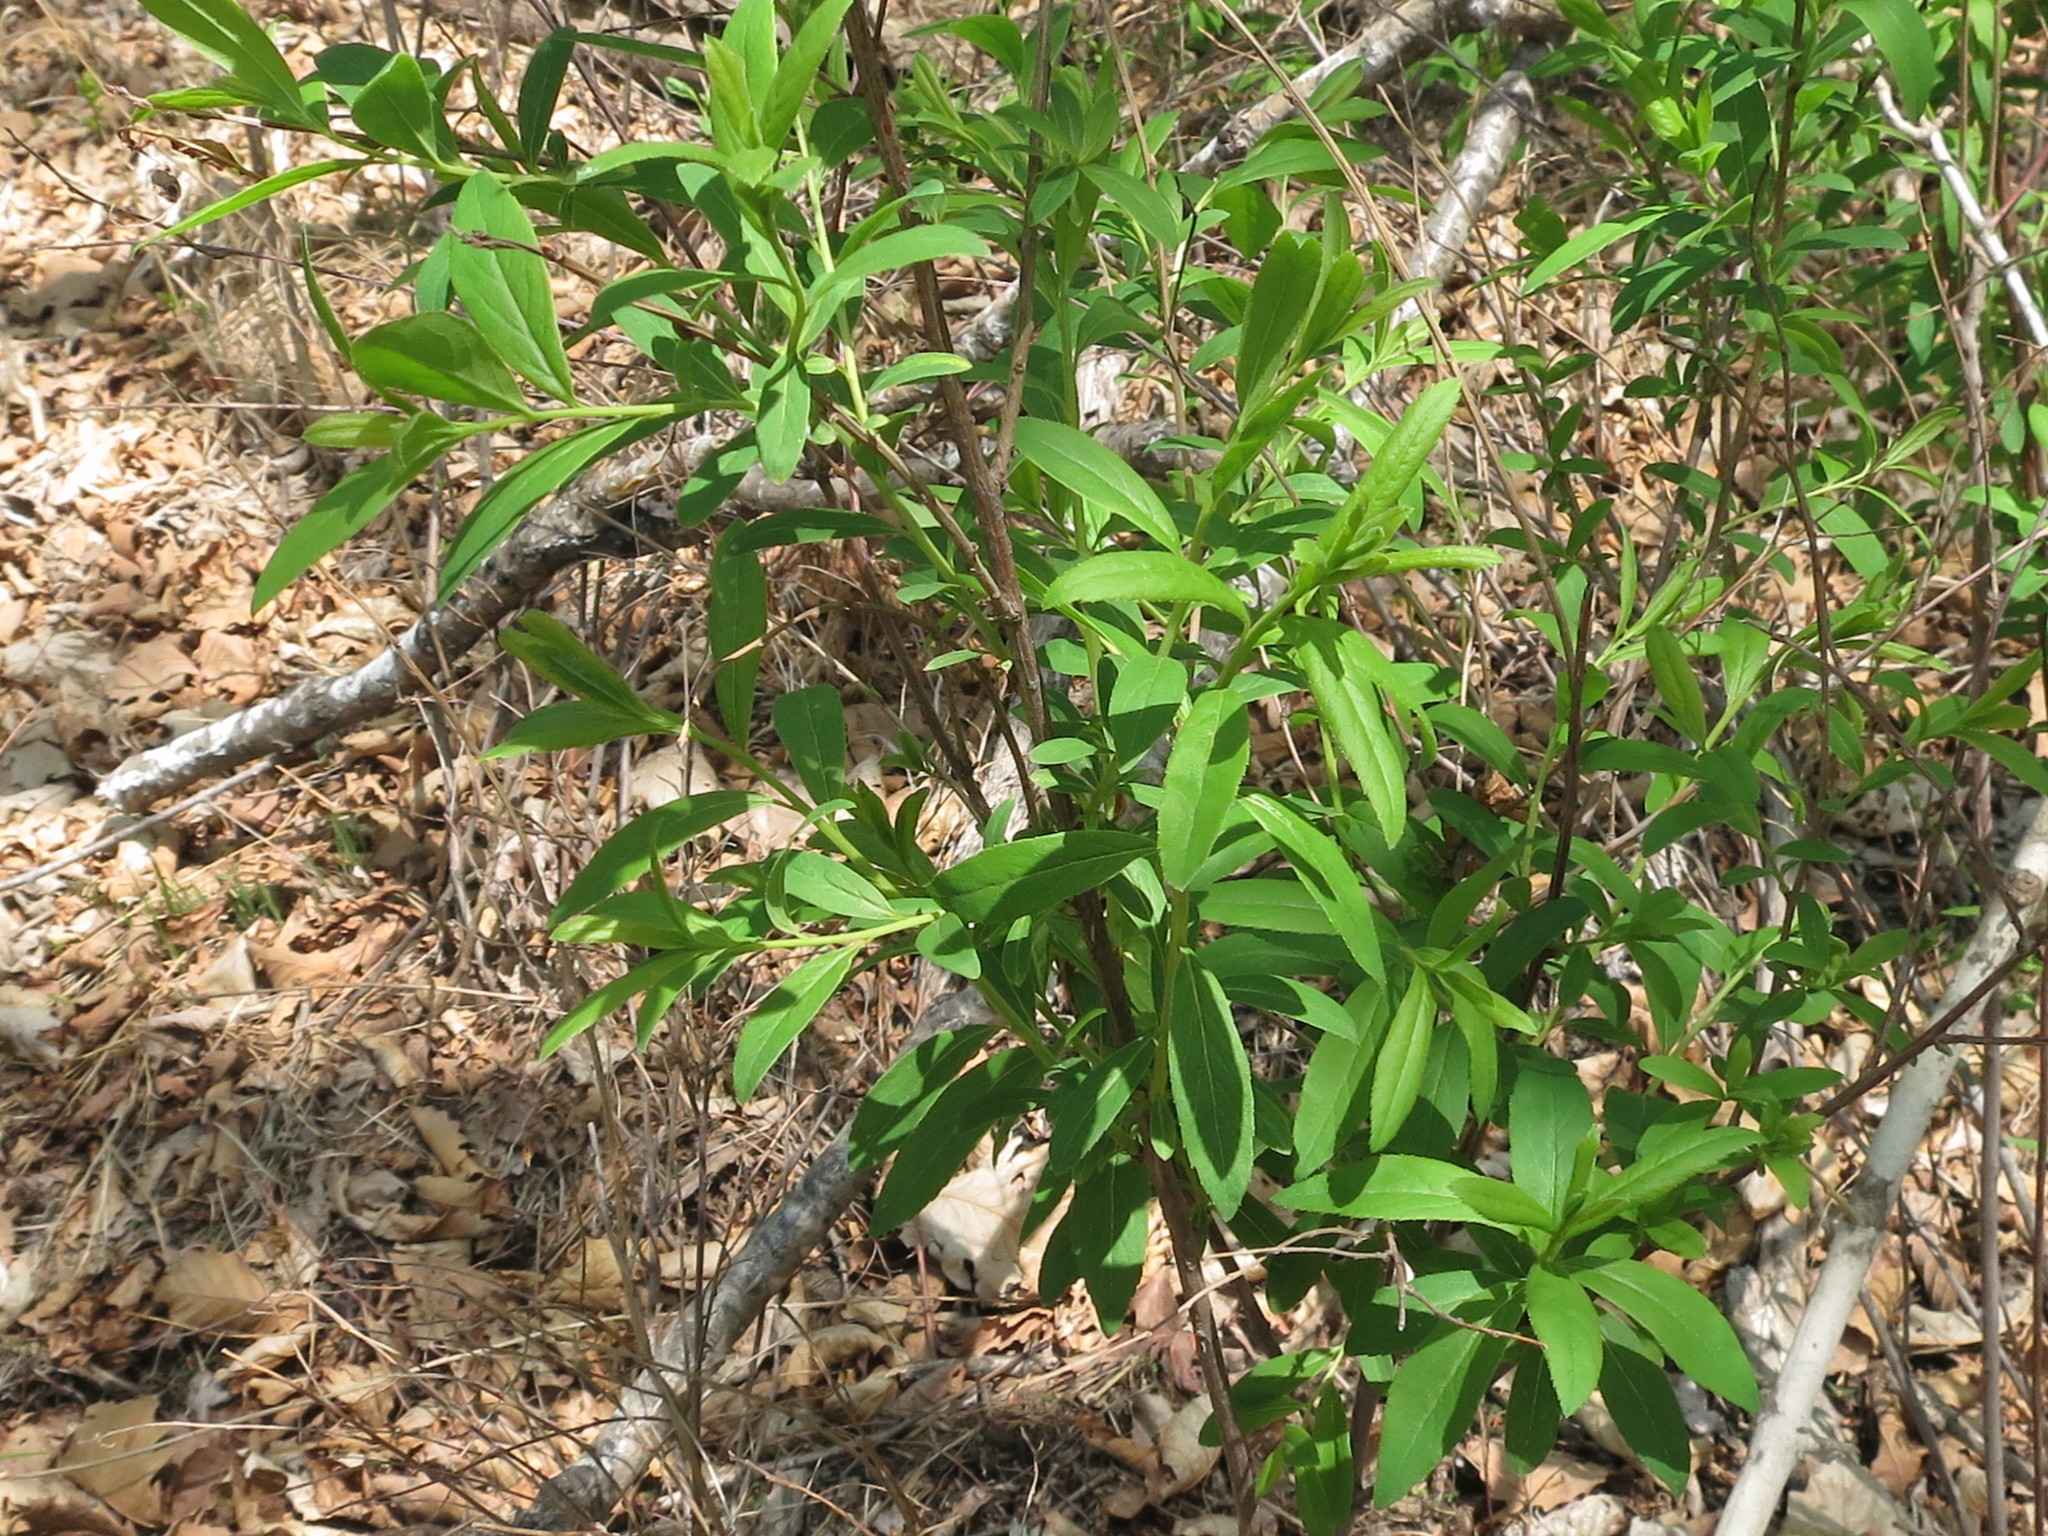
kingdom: Plantae
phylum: Tracheophyta
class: Magnoliopsida
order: Rosales
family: Rosaceae
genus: Spiraea
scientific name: Spiraea salicifolia
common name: Bridewort
